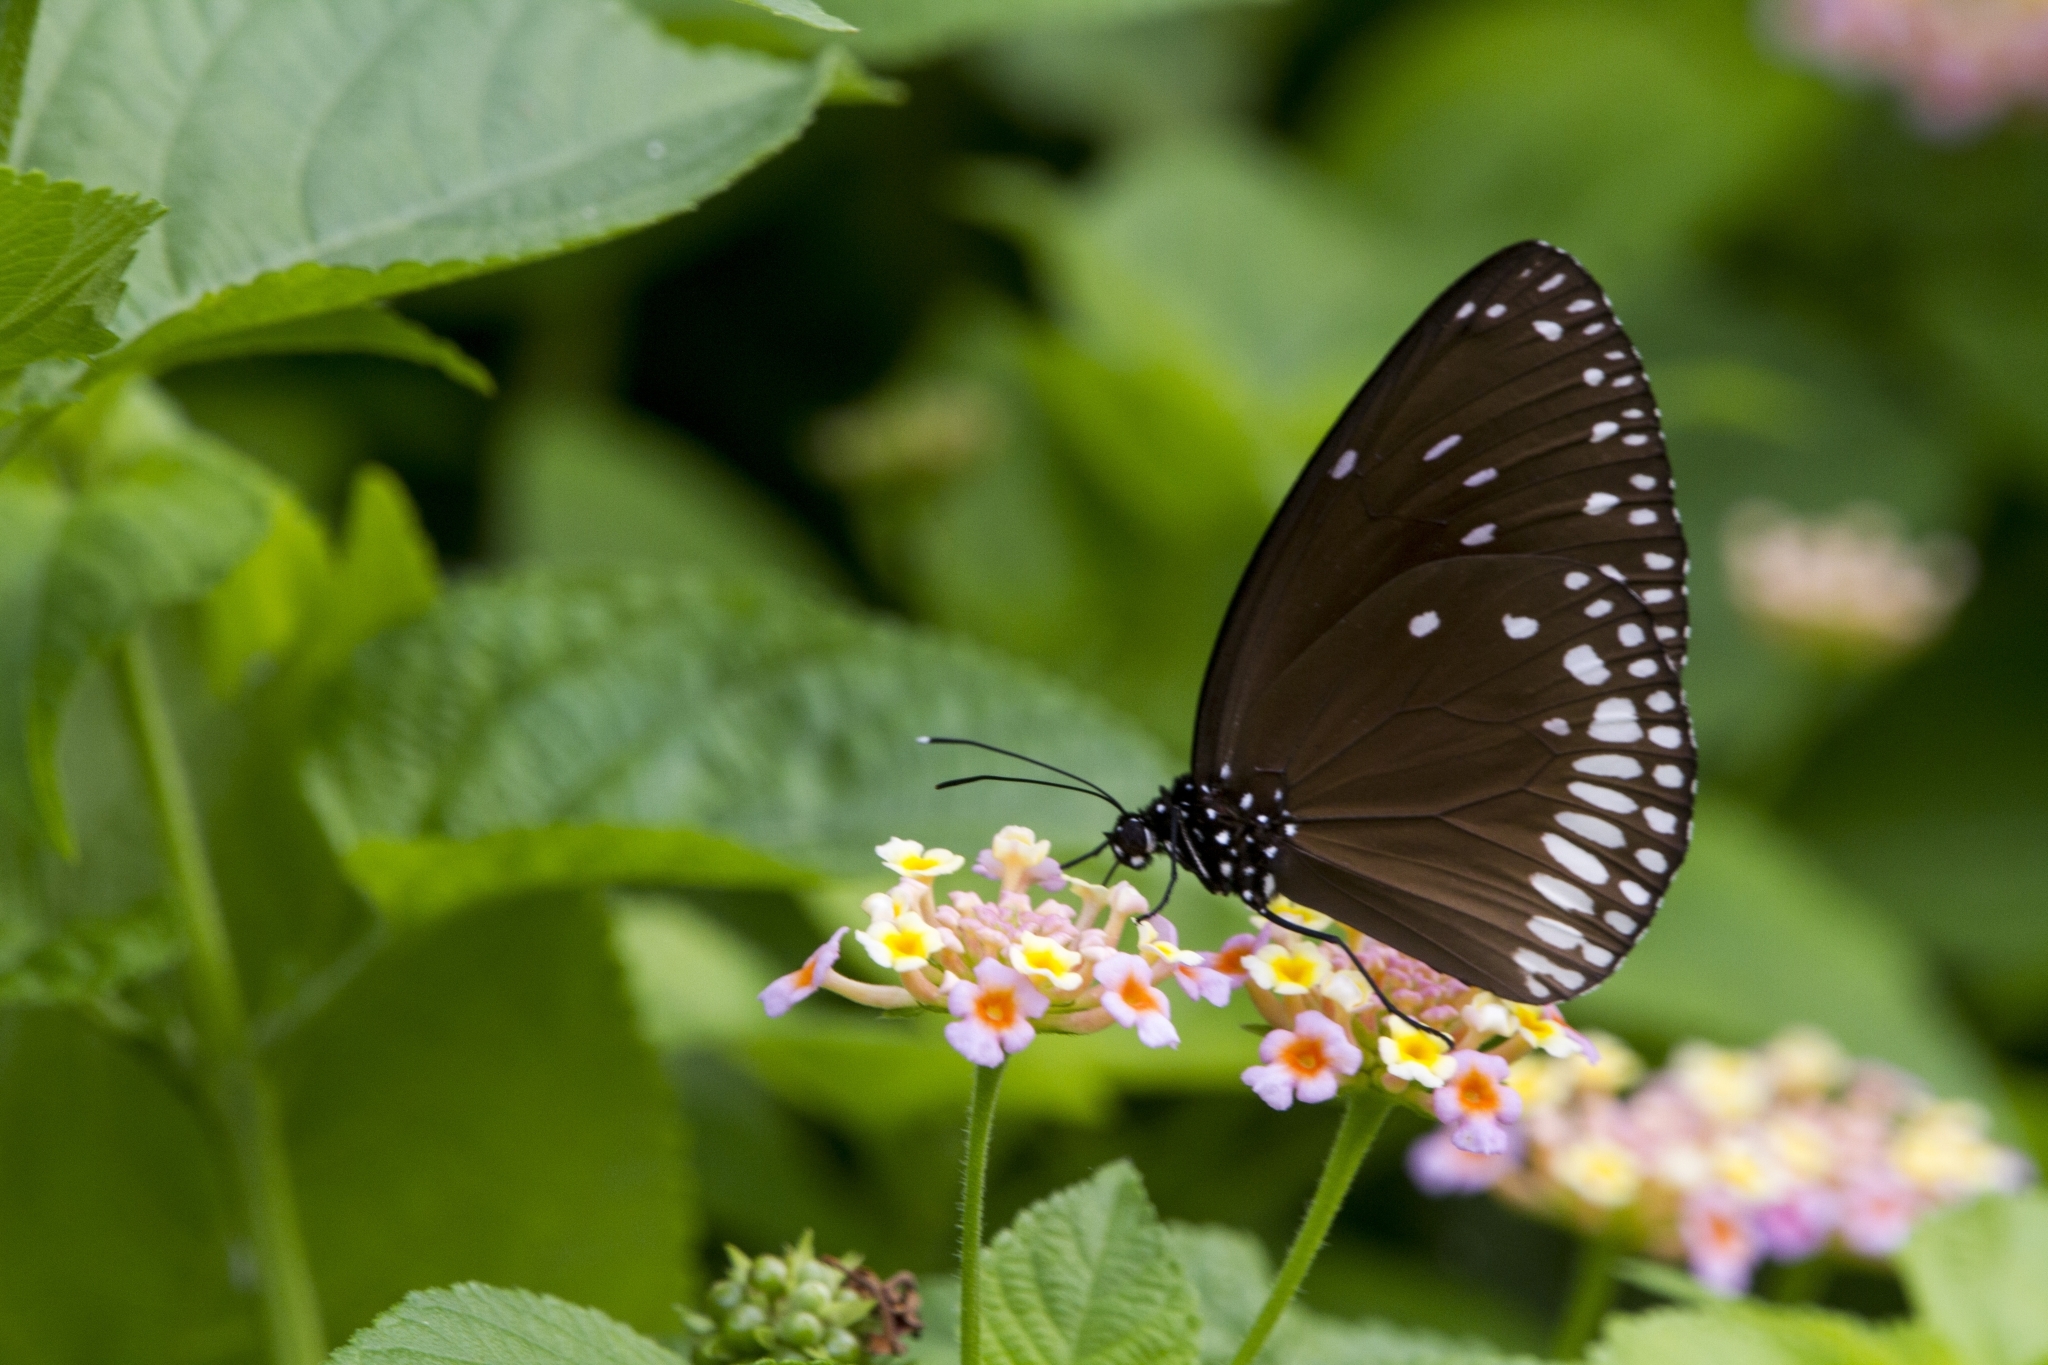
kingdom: Animalia
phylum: Arthropoda
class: Insecta
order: Lepidoptera
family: Nymphalidae
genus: Euploea
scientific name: Euploea klugii
